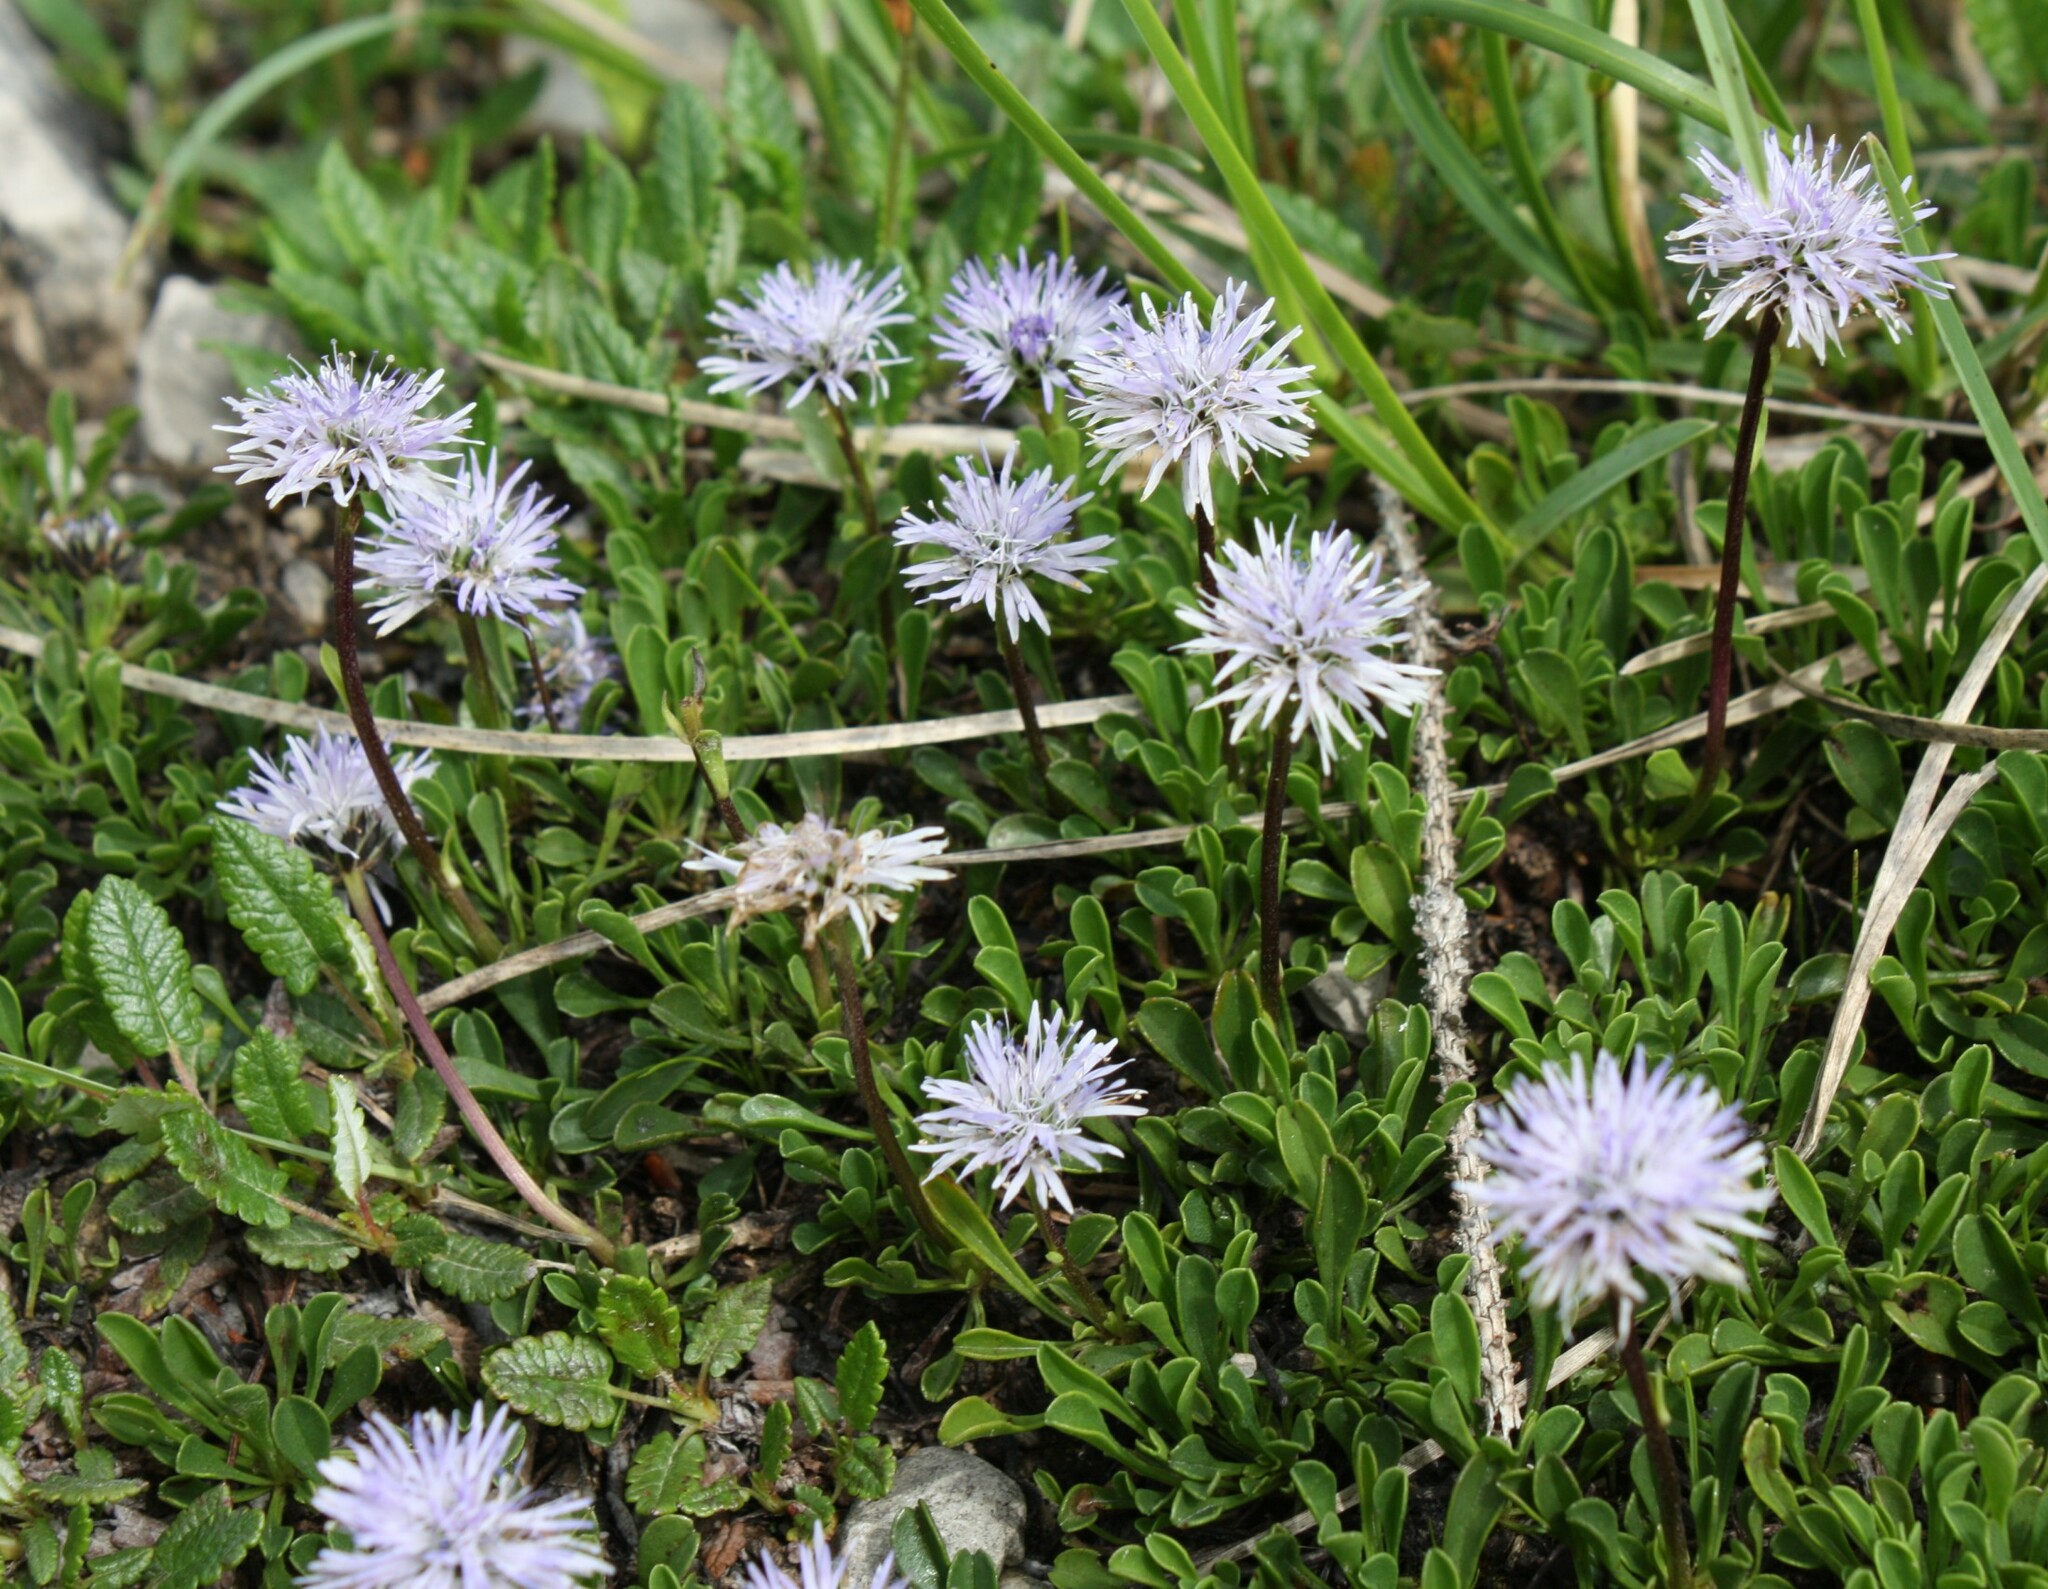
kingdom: Plantae
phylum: Tracheophyta
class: Magnoliopsida
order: Lamiales
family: Plantaginaceae
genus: Globularia
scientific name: Globularia cordifolia
